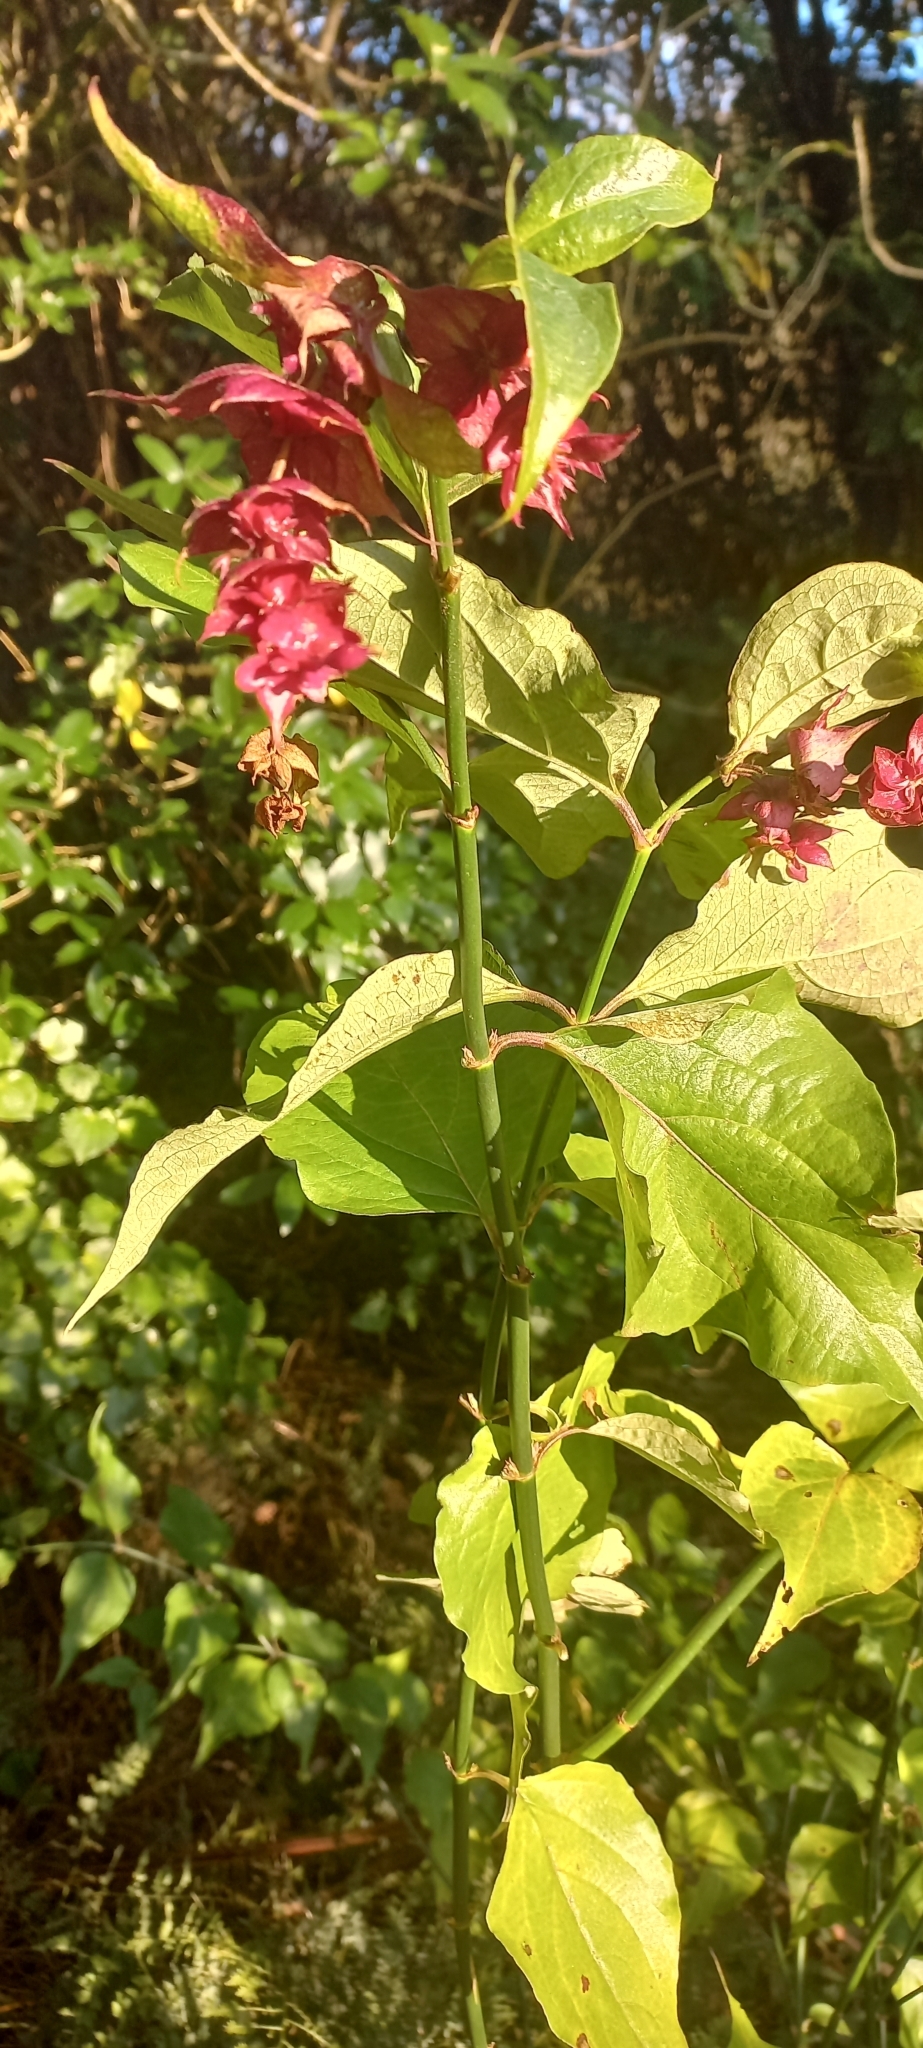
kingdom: Plantae
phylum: Tracheophyta
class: Magnoliopsida
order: Dipsacales
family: Caprifoliaceae
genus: Leycesteria
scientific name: Leycesteria formosa
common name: Himalayan honeysuckle
